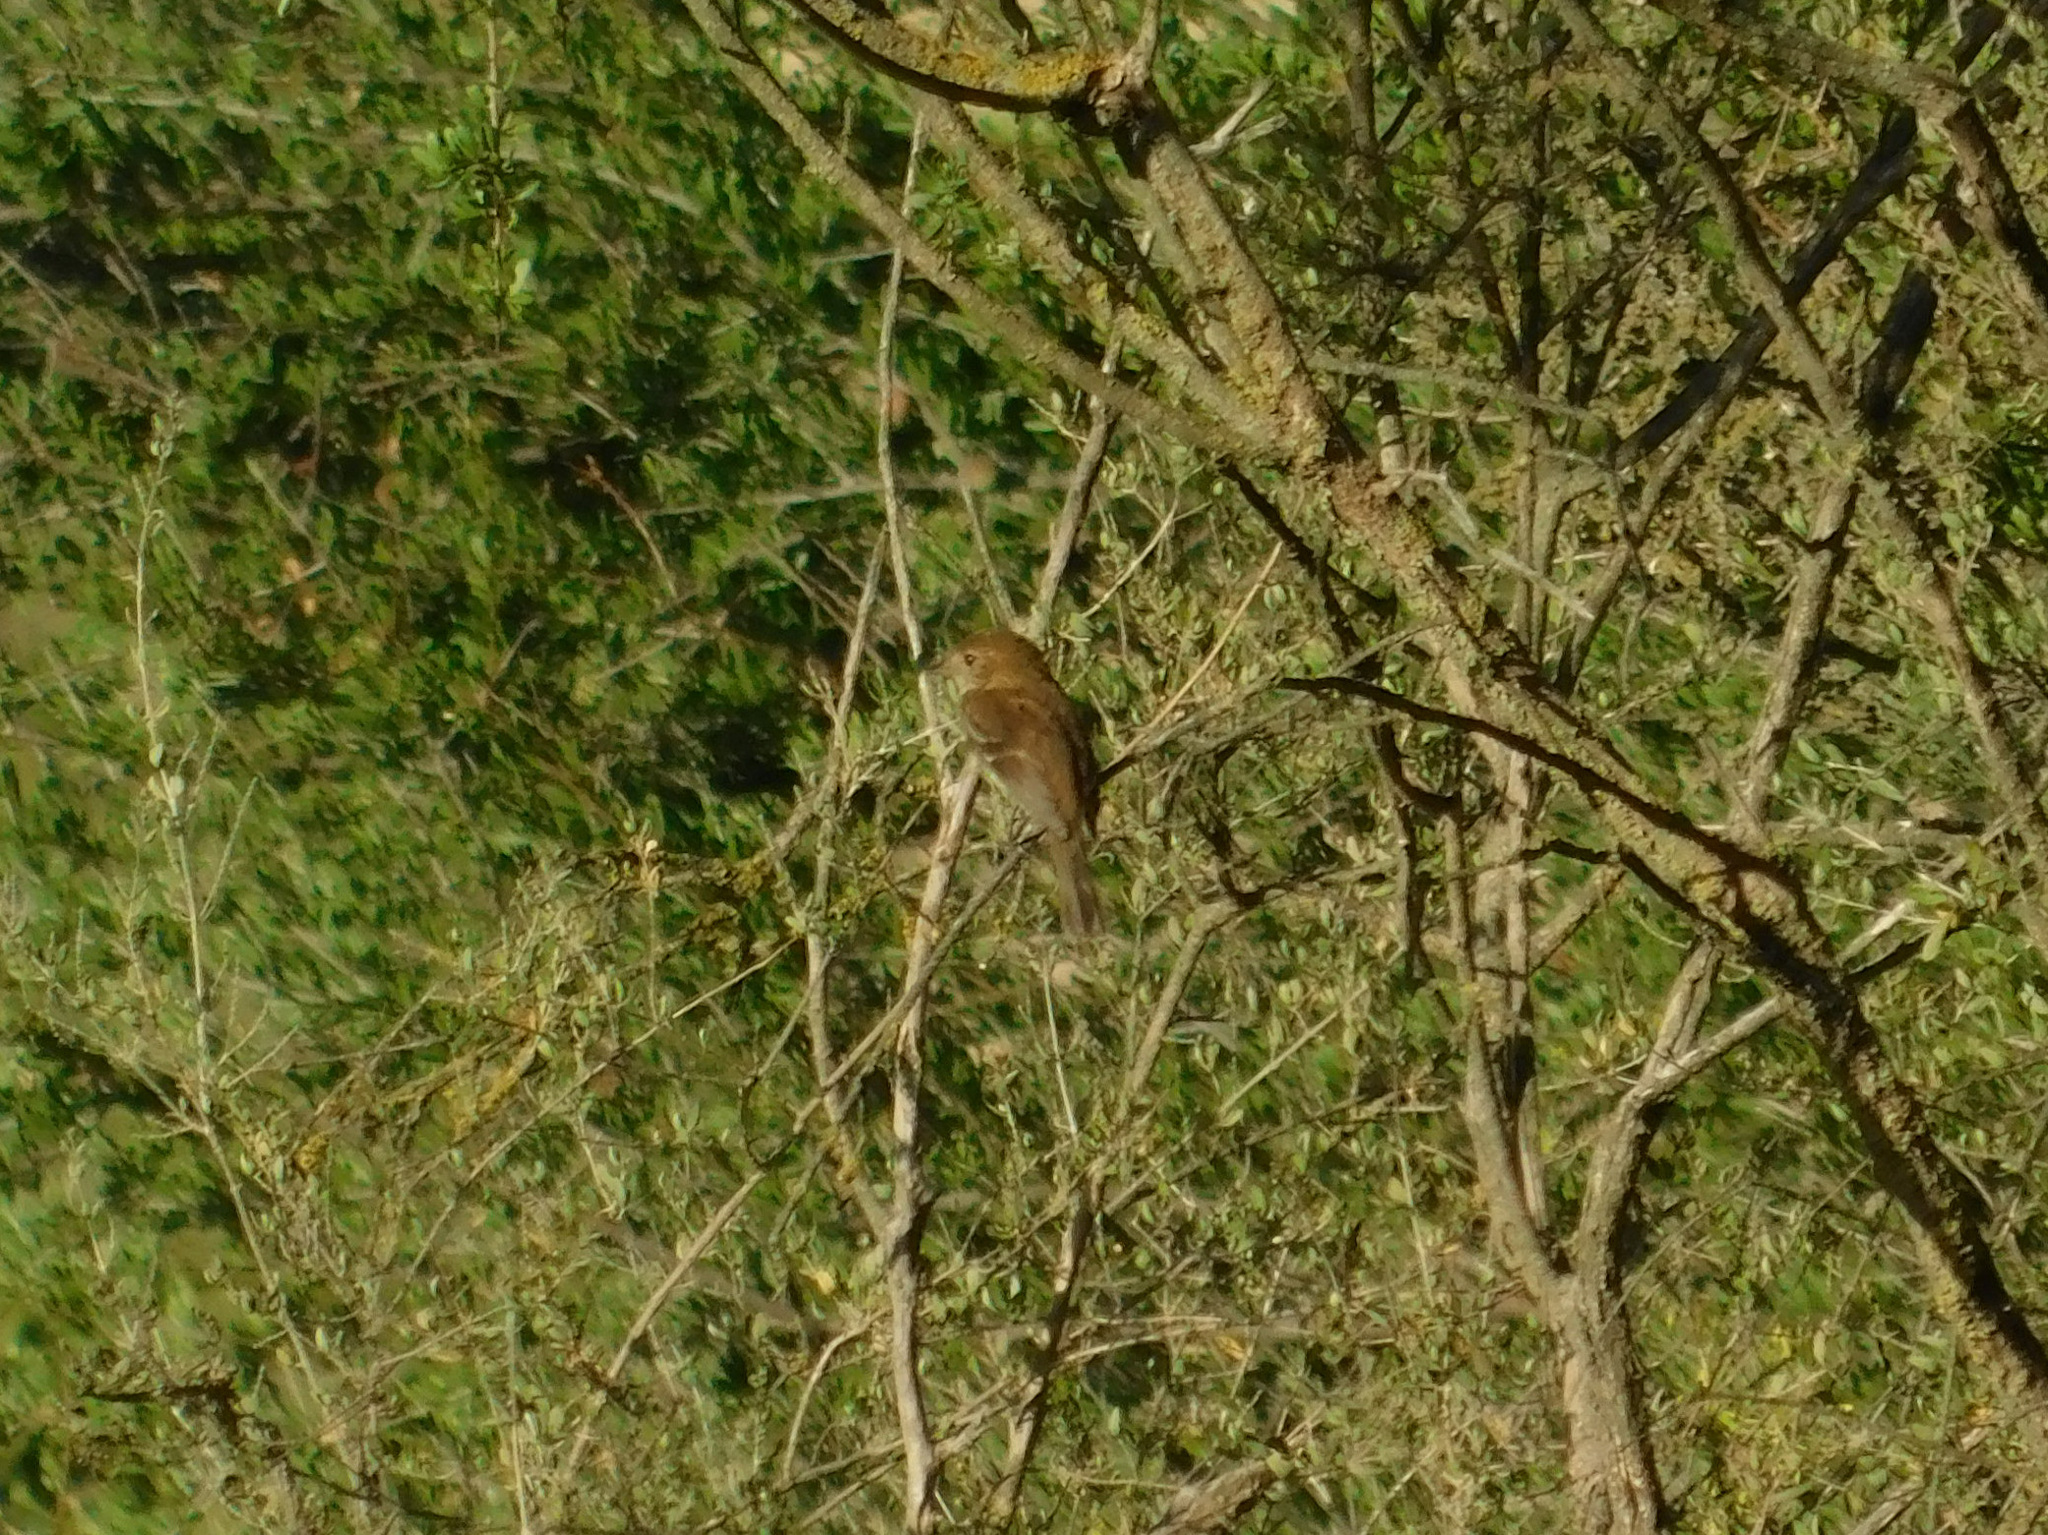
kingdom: Animalia
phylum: Chordata
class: Aves
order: Passeriformes
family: Tyrannidae
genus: Myiophobus
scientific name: Myiophobus fasciatus
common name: Bran-colored flycatcher
